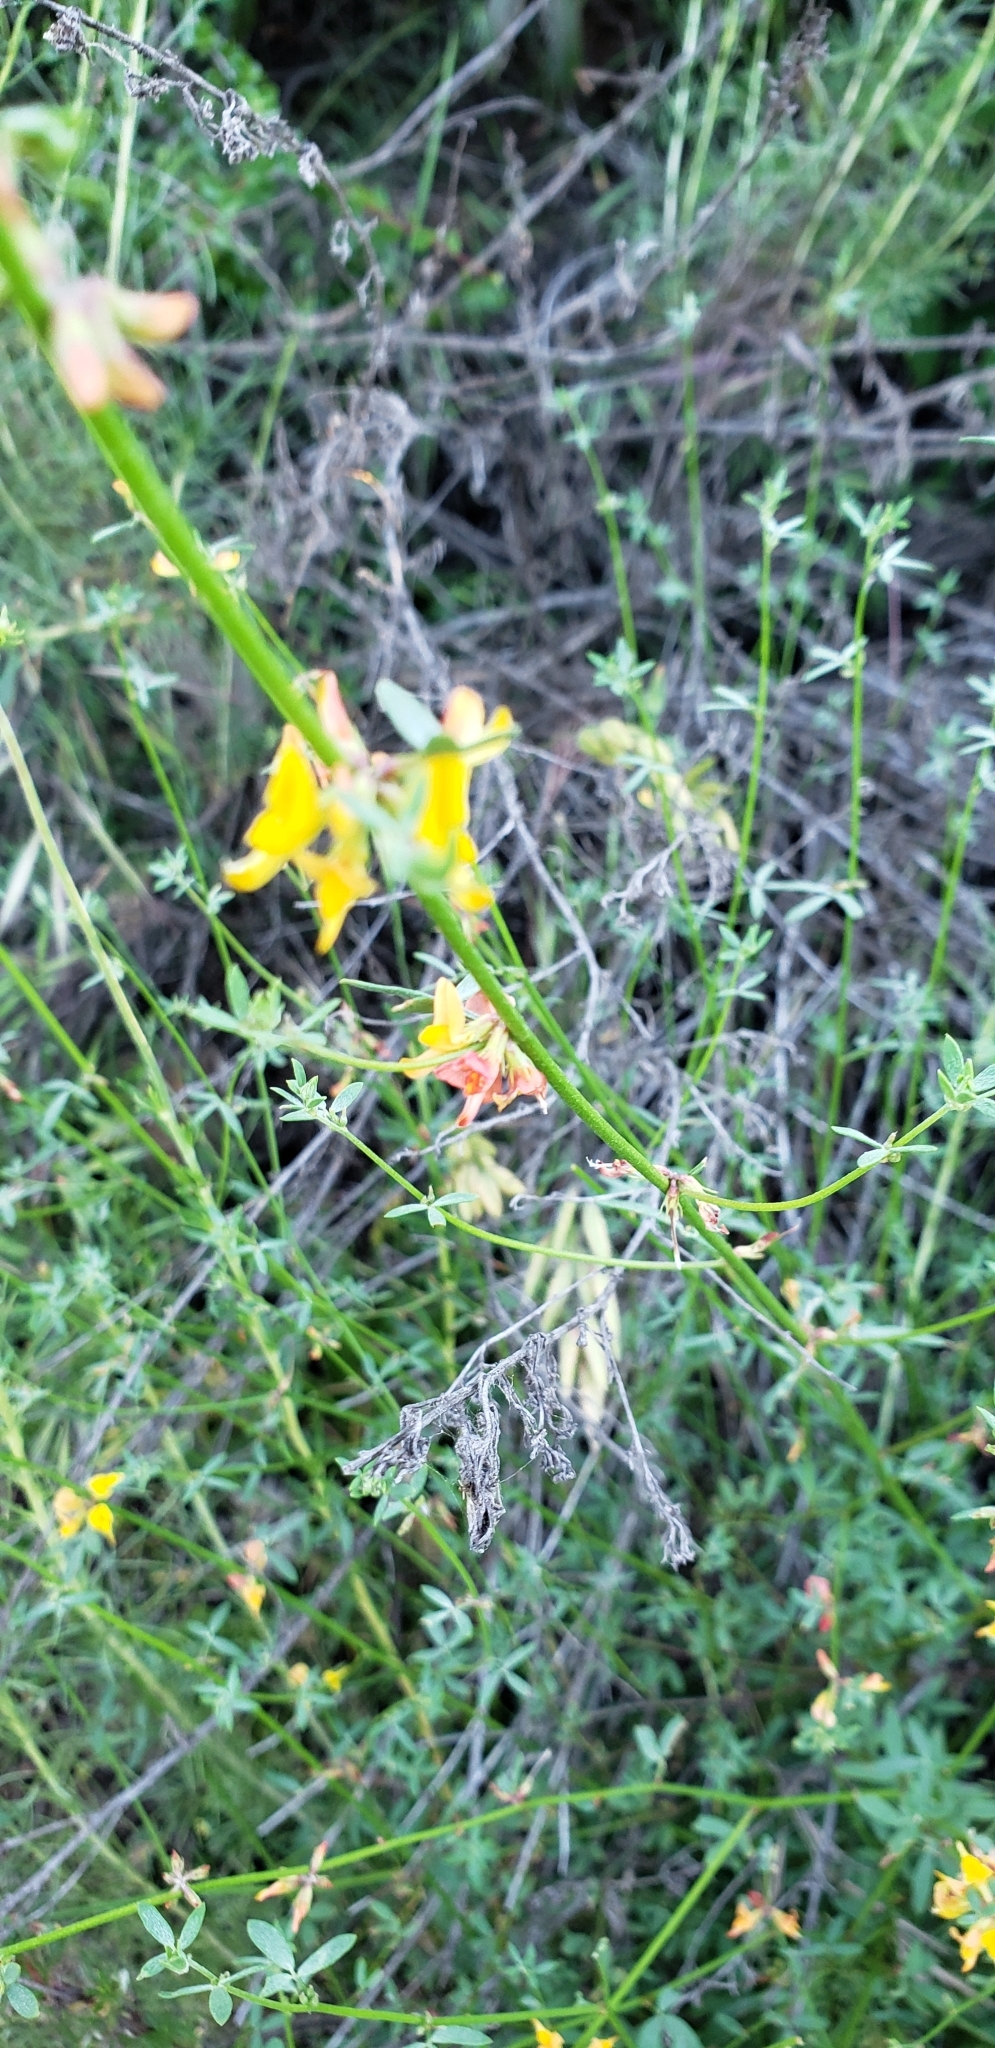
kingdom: Plantae
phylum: Tracheophyta
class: Magnoliopsida
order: Fabales
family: Fabaceae
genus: Acmispon
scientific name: Acmispon glaber
